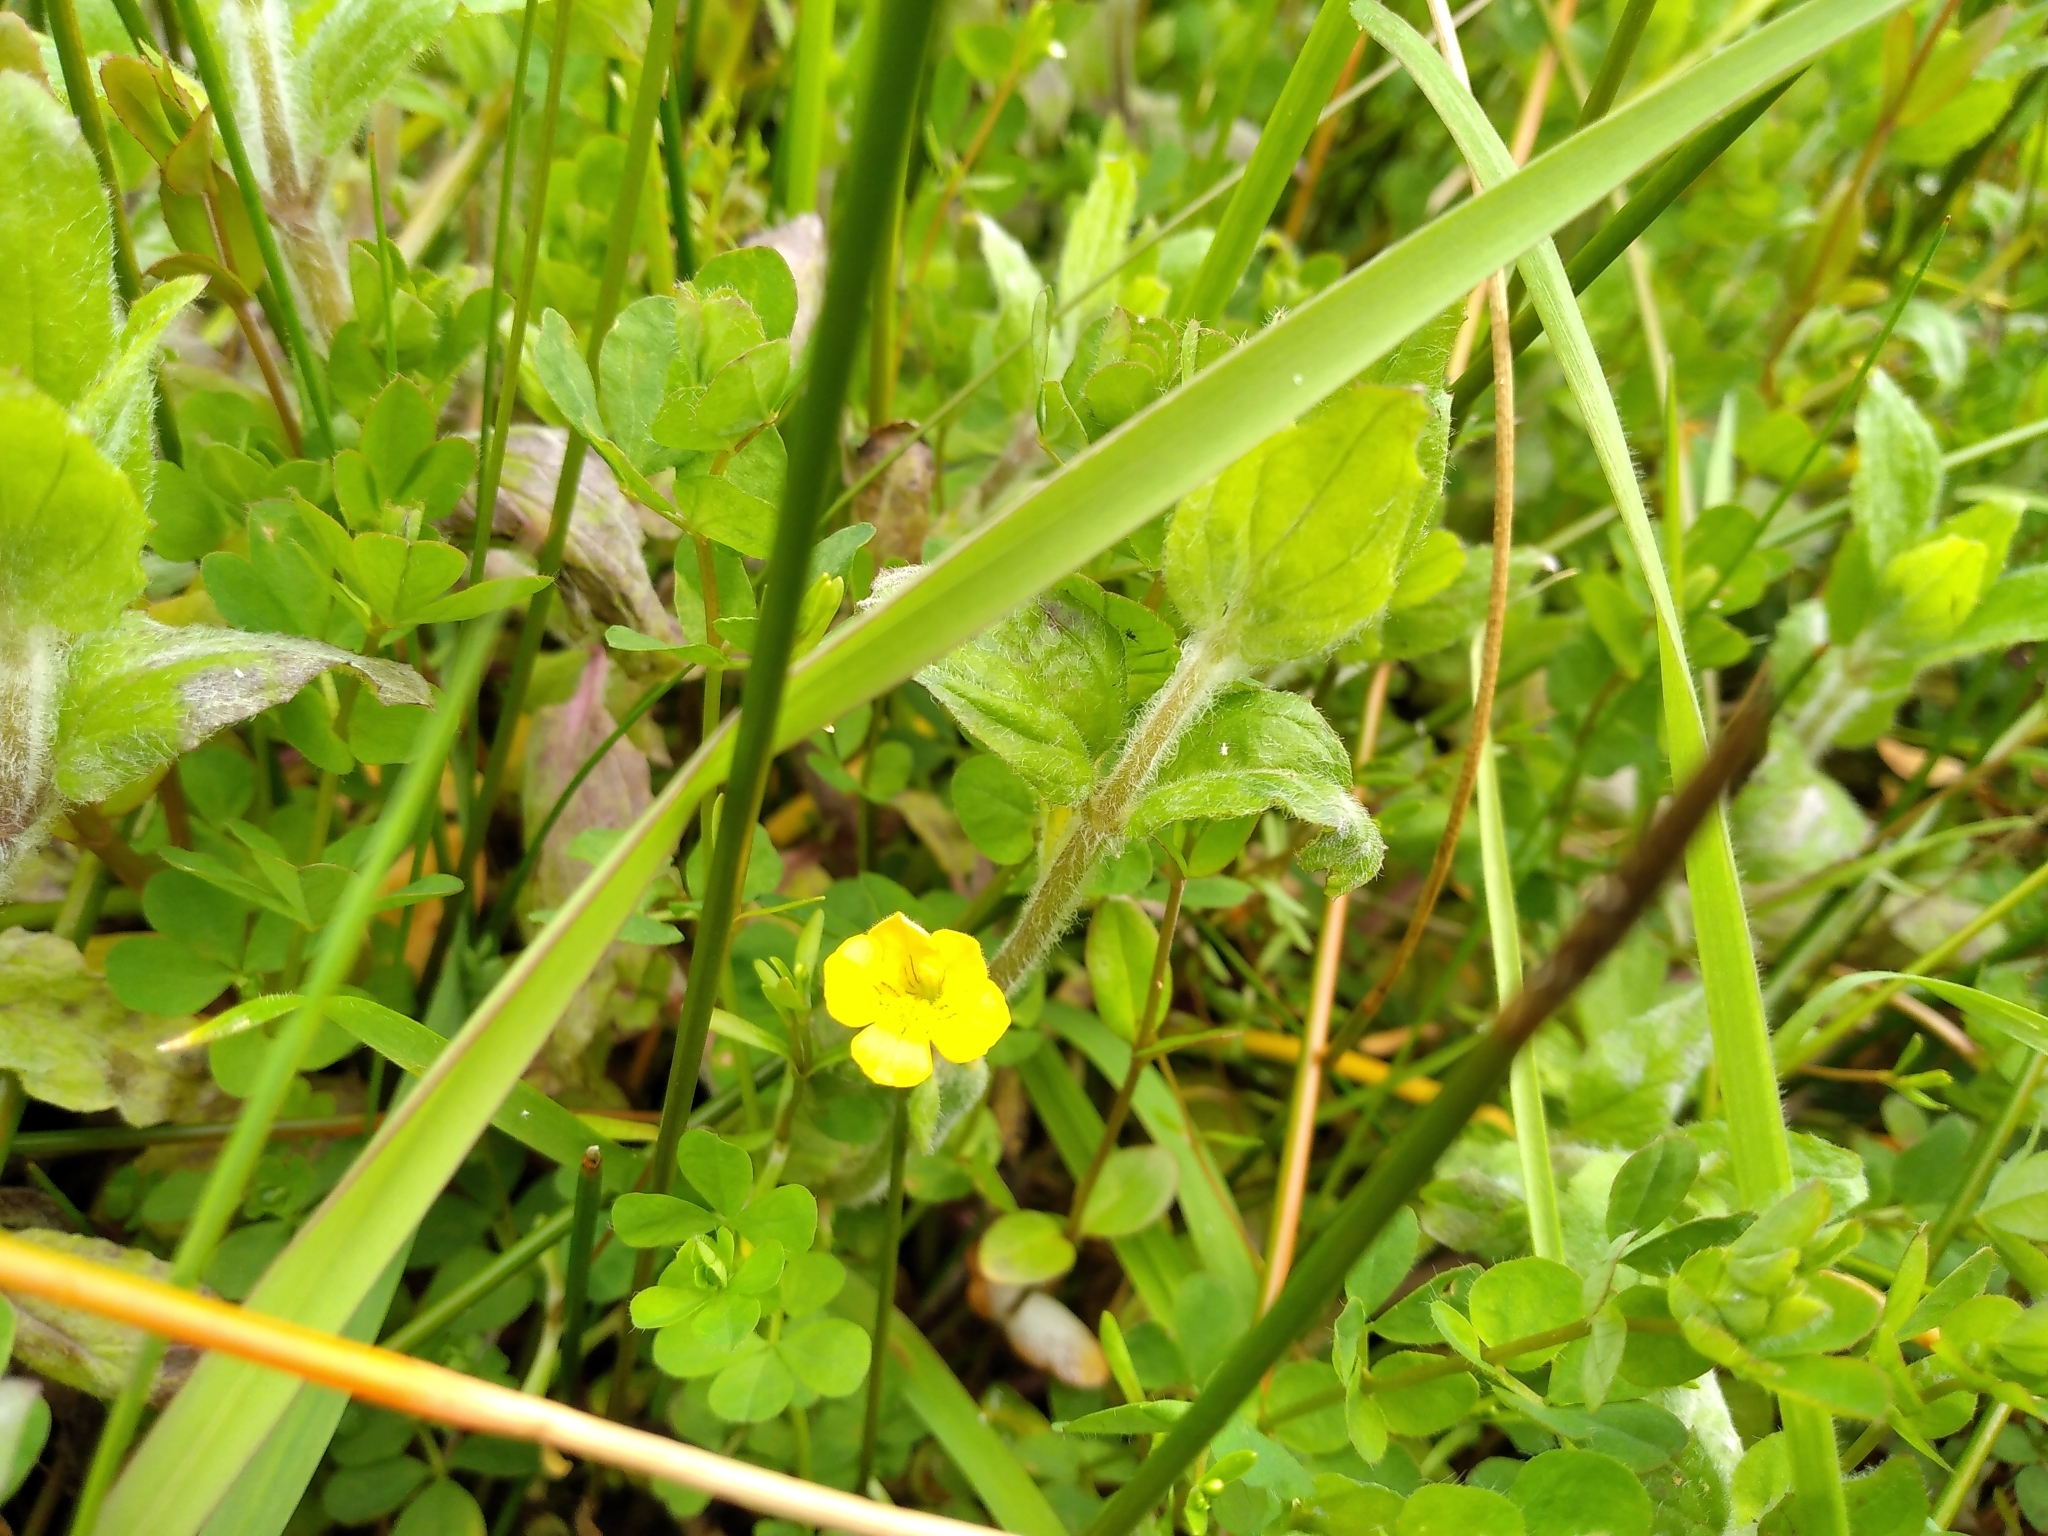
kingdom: Plantae
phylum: Tracheophyta
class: Magnoliopsida
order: Lamiales
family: Phrymaceae
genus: Erythranthe
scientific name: Erythranthe moschata
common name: Muskflower
